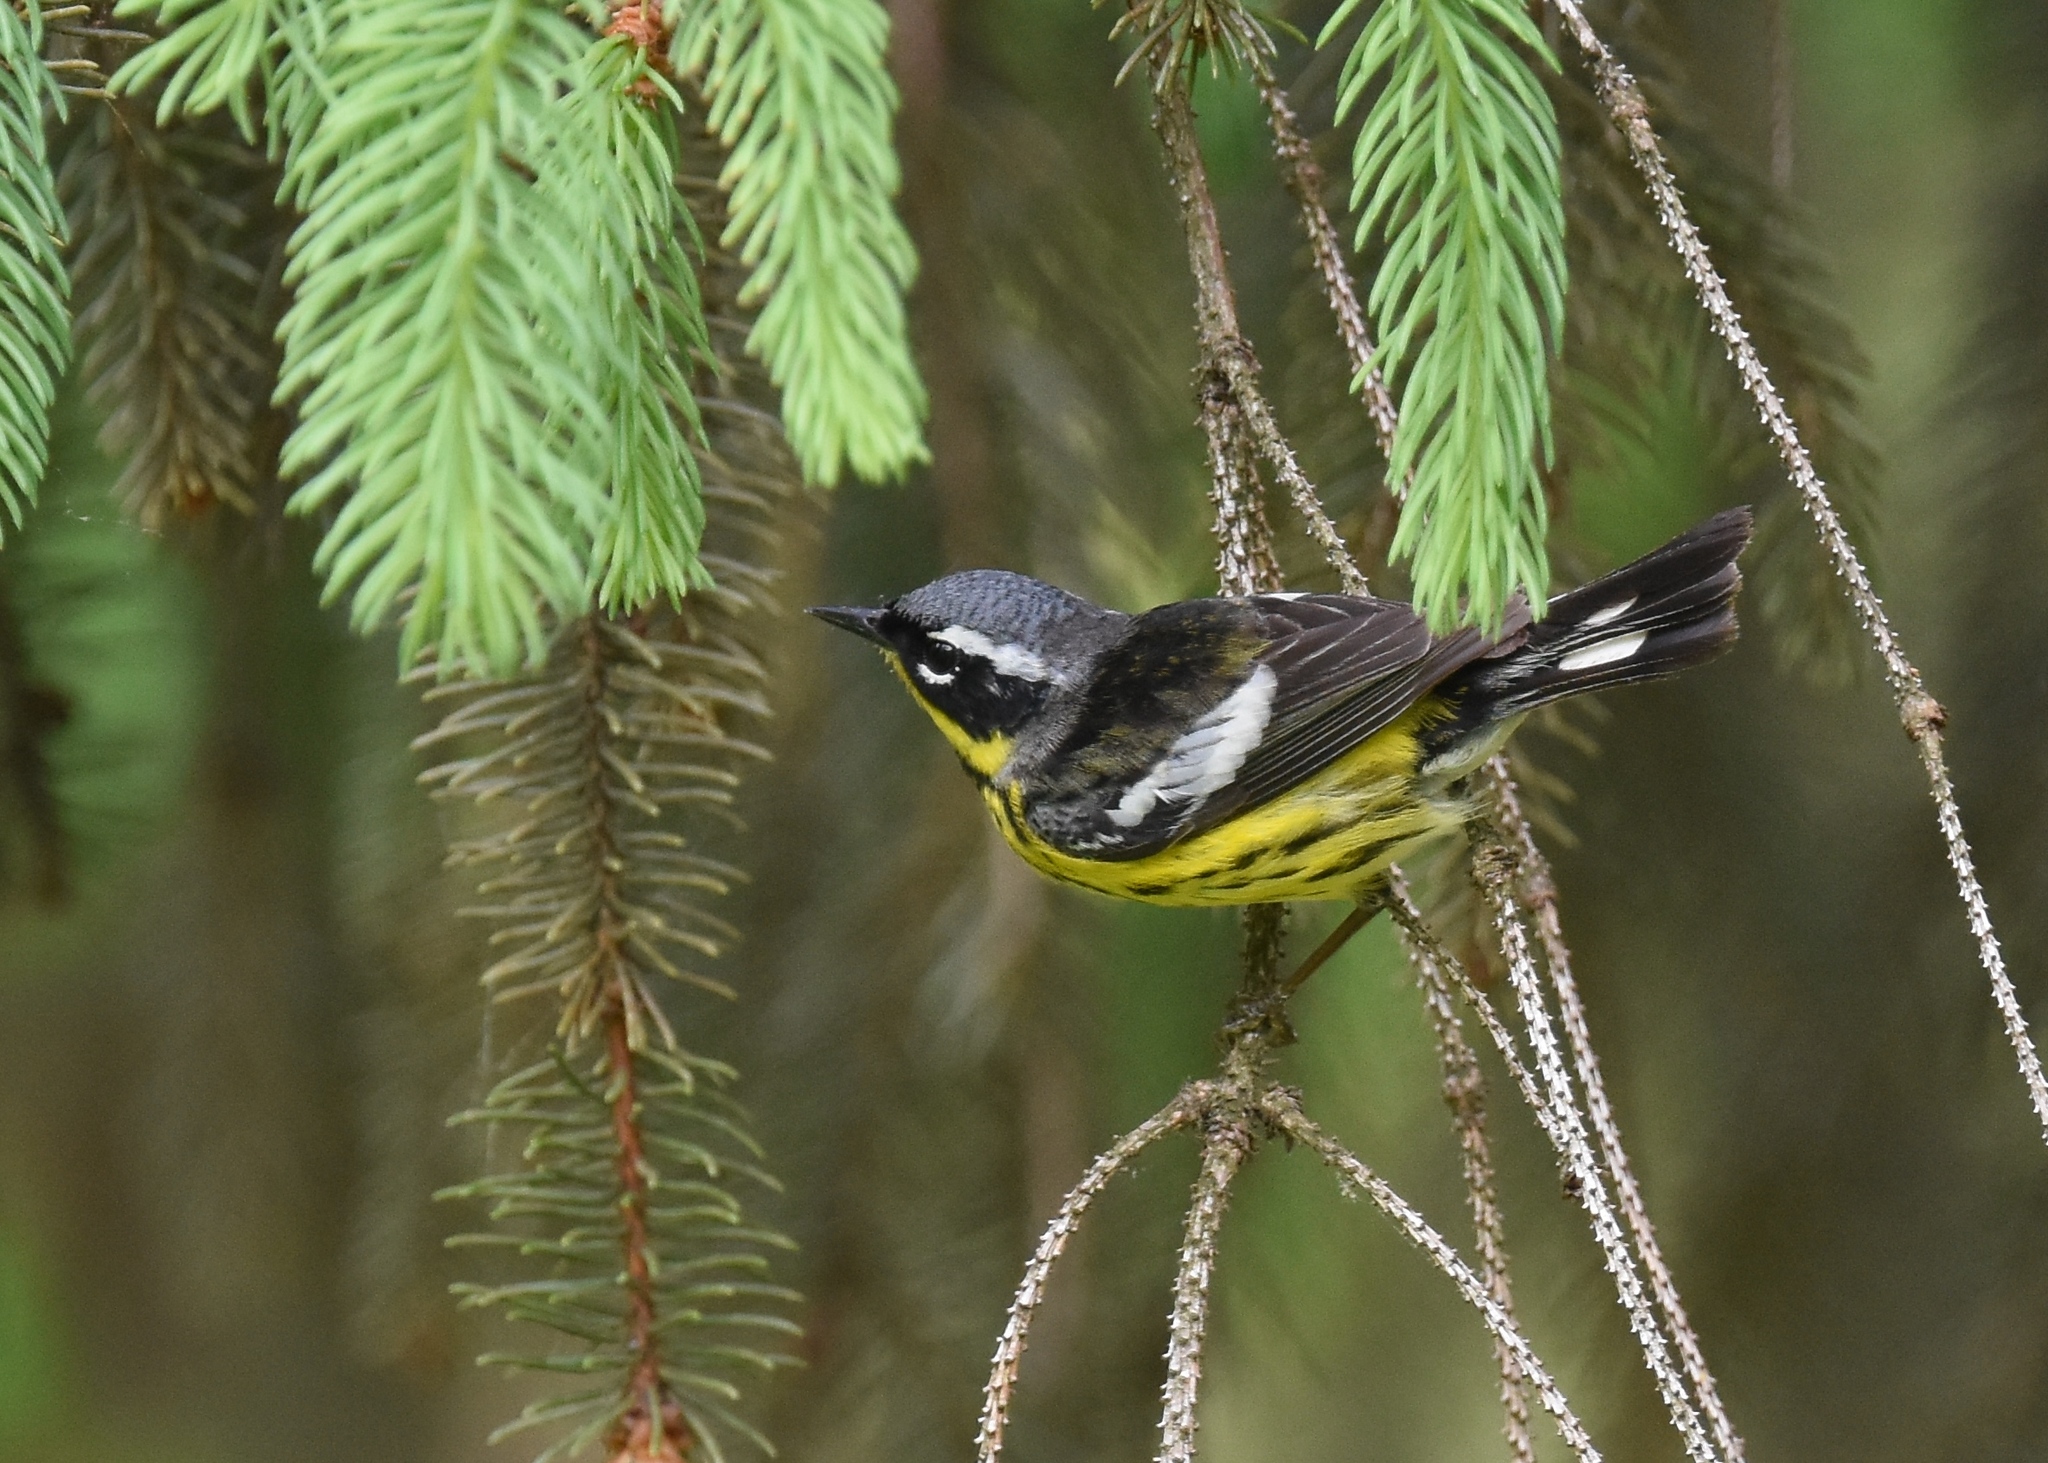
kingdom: Animalia
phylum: Chordata
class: Aves
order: Passeriformes
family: Parulidae
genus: Setophaga
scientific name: Setophaga magnolia
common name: Magnolia warbler
